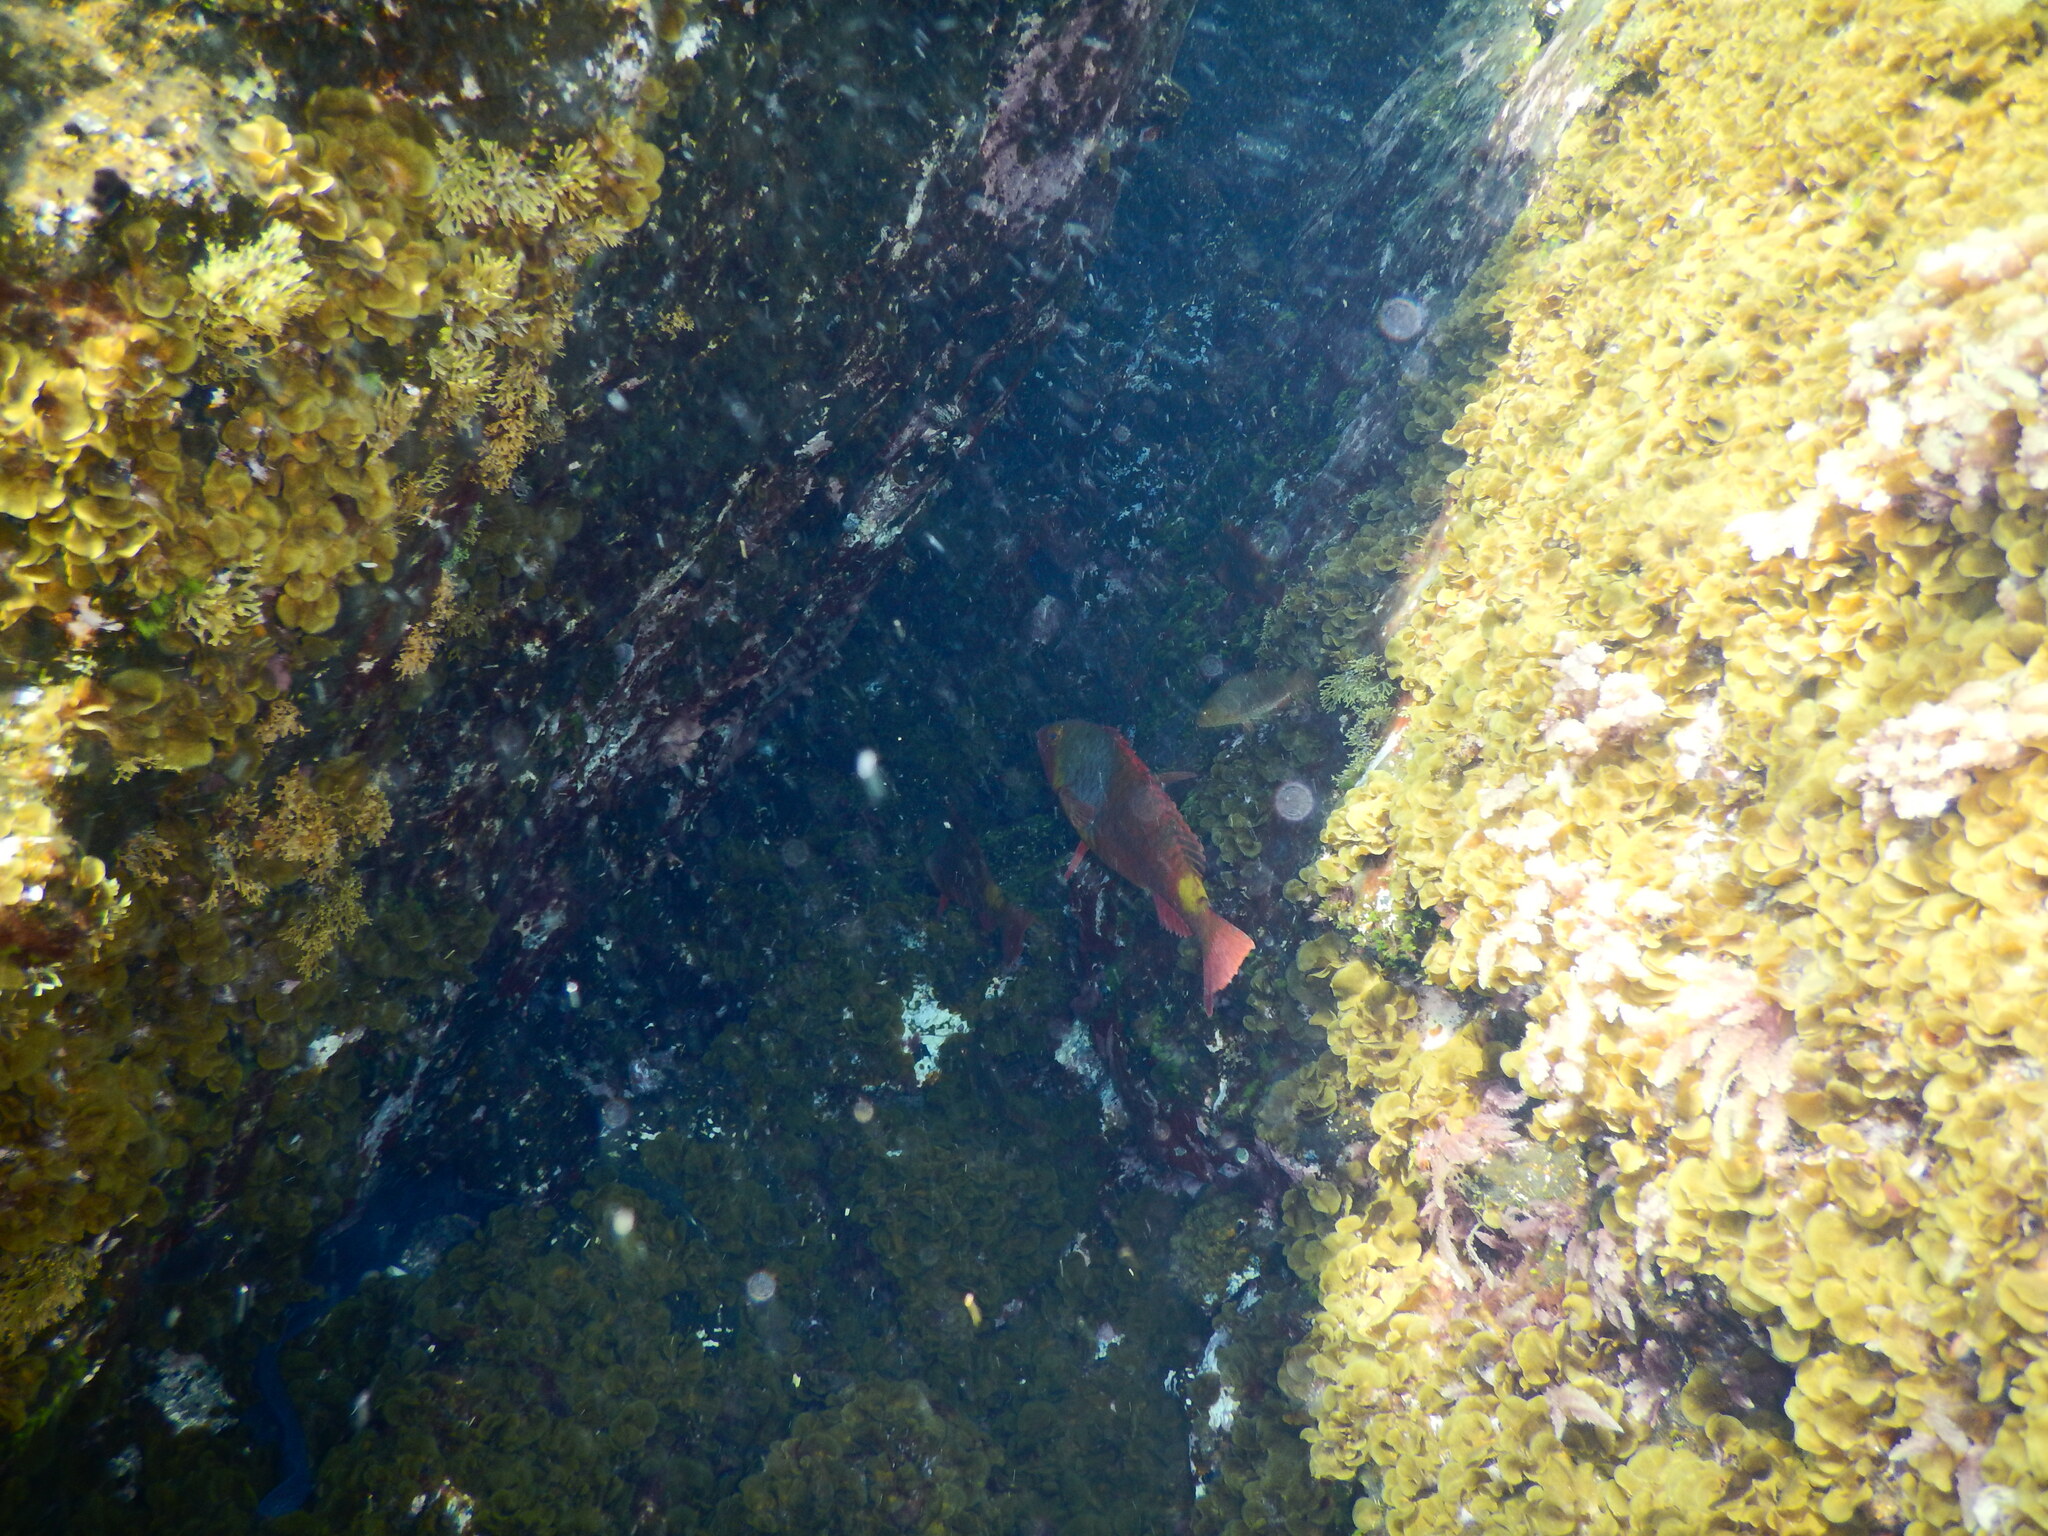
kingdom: Animalia
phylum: Chordata
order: Perciformes
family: Scaridae
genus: Sparisoma
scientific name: Sparisoma cretense
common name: Parrotfish
